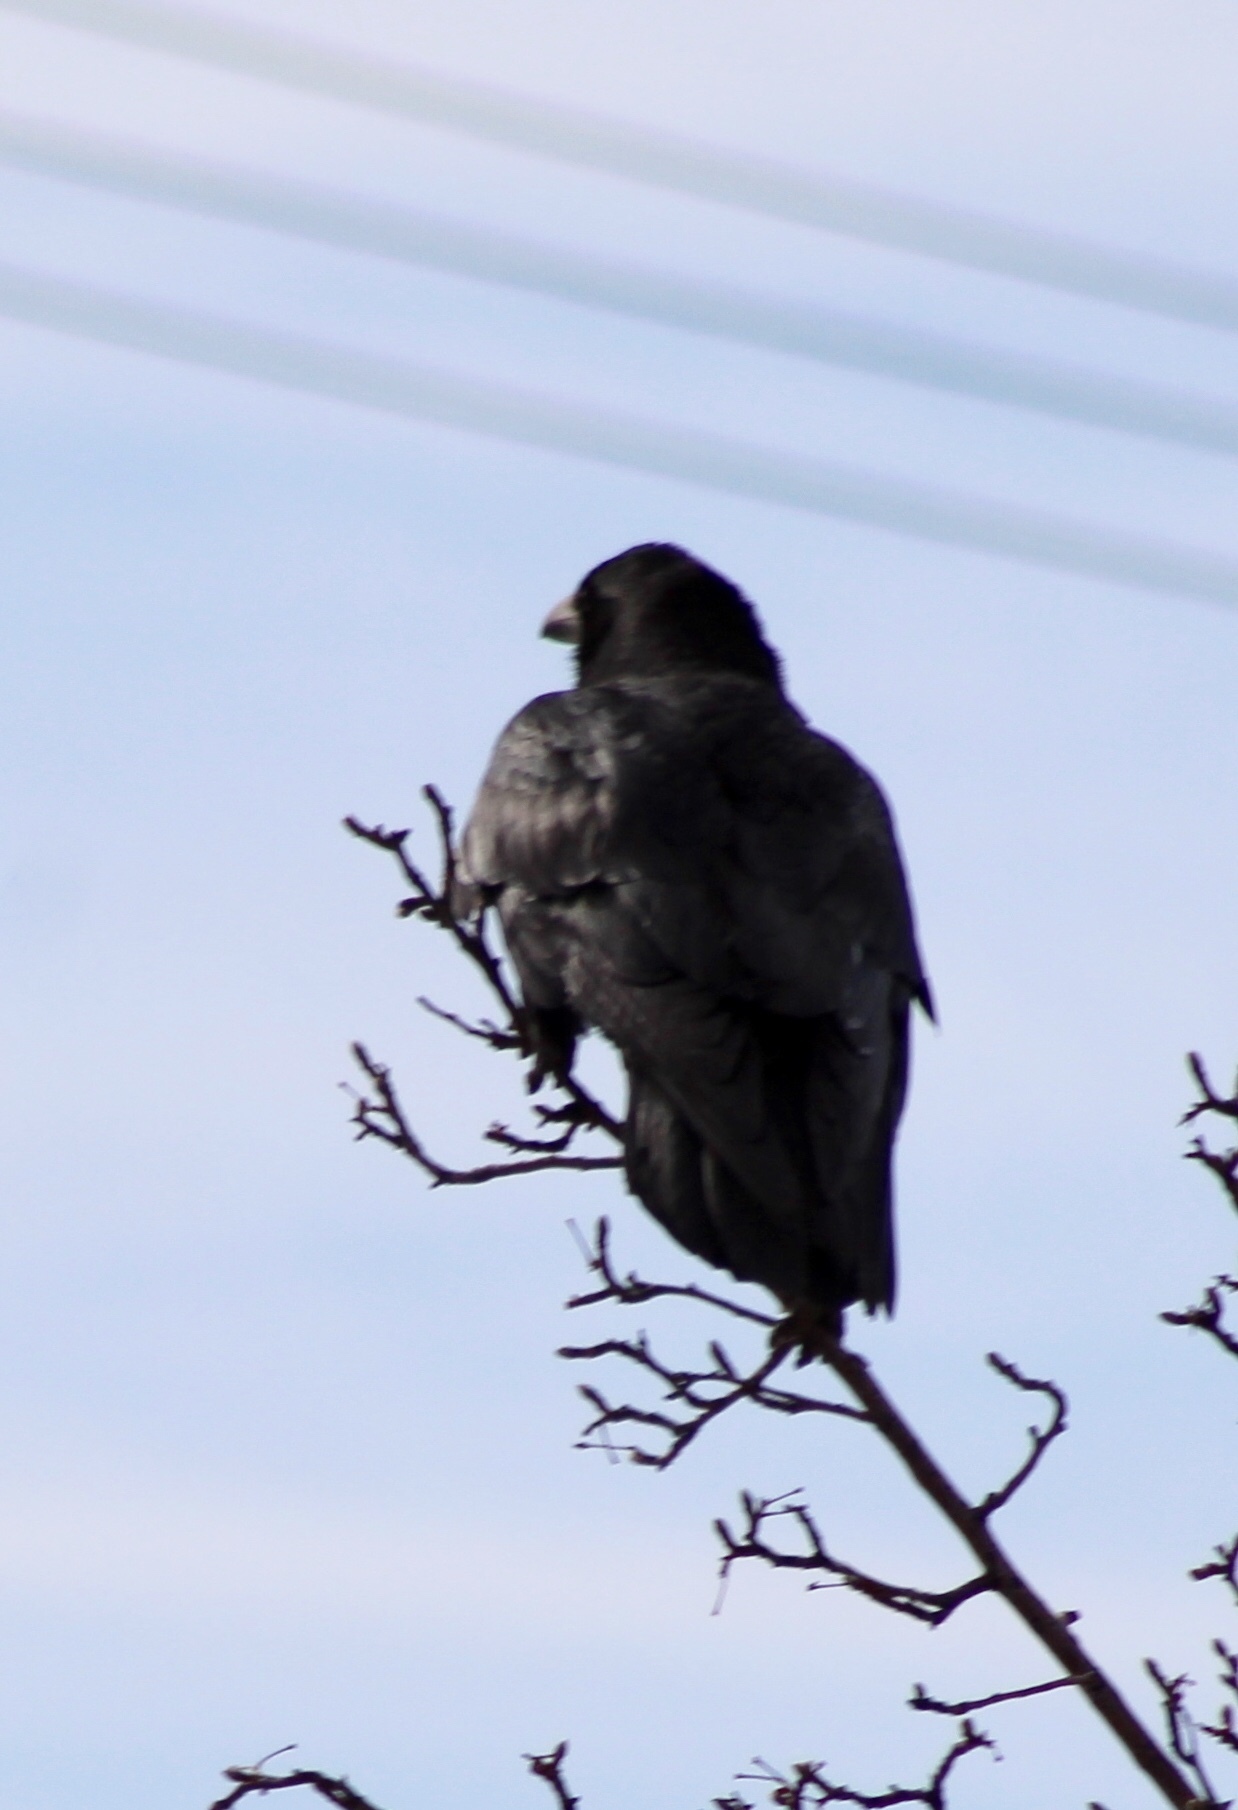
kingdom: Animalia
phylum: Chordata
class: Aves
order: Passeriformes
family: Corvidae
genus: Corvus
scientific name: Corvus corax
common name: Common raven
